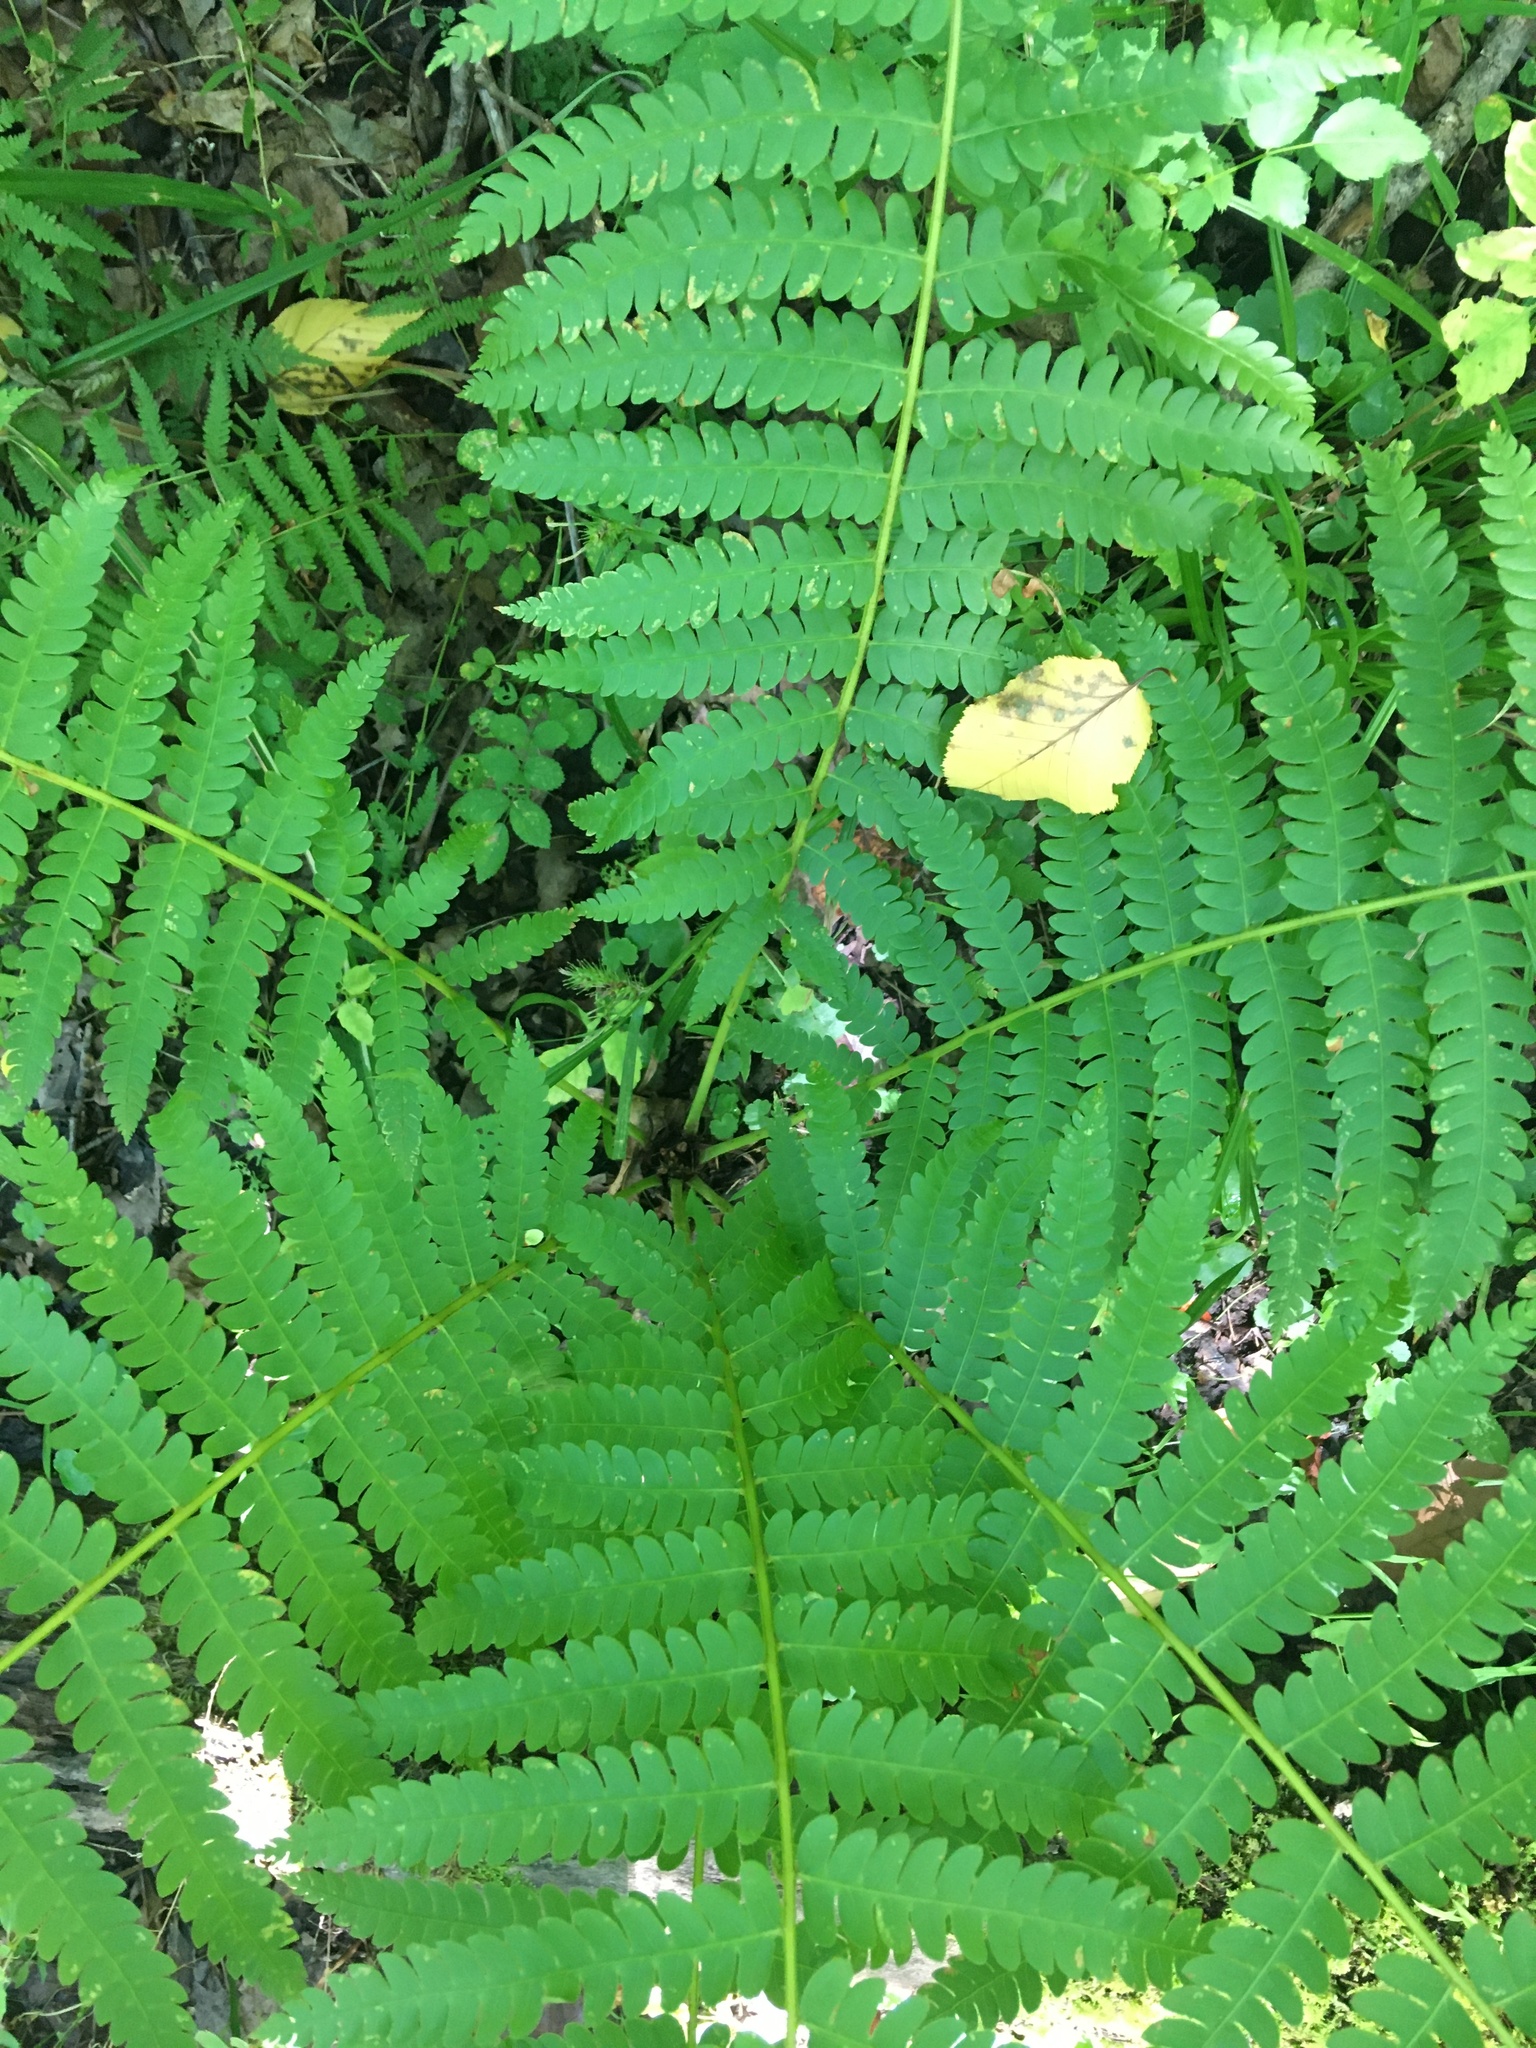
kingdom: Plantae
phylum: Tracheophyta
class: Polypodiopsida
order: Osmundales
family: Osmundaceae
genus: Osmundastrum
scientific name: Osmundastrum cinnamomeum
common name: Cinnamon fern
